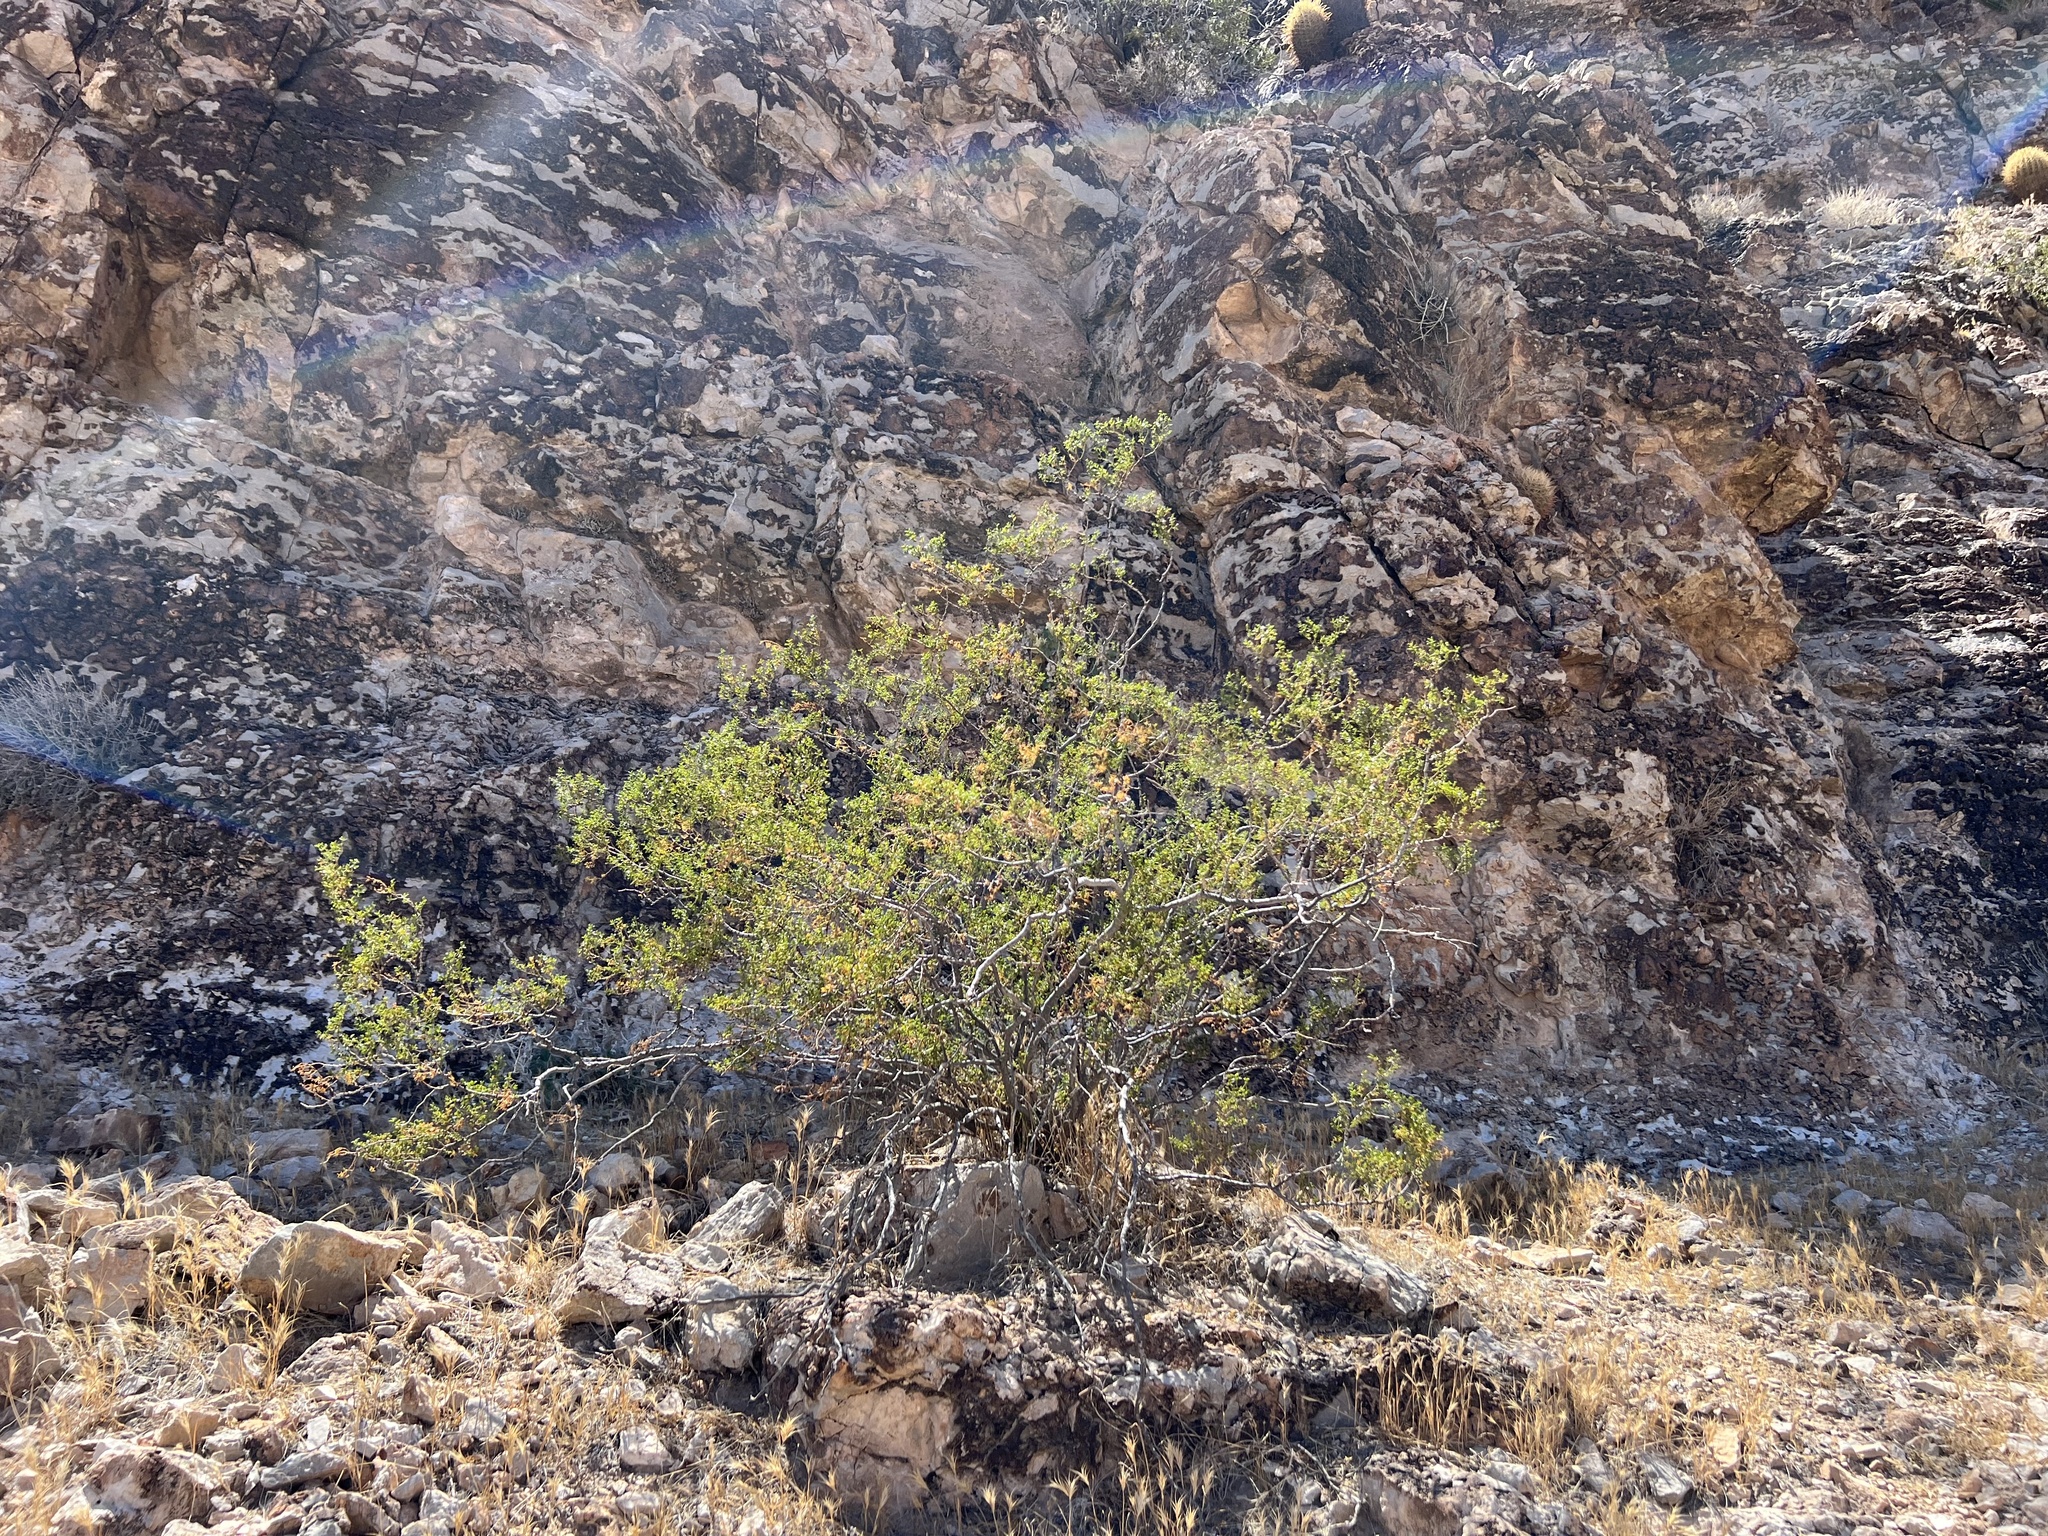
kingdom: Plantae
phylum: Tracheophyta
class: Magnoliopsida
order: Zygophyllales
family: Zygophyllaceae
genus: Larrea
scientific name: Larrea tridentata
